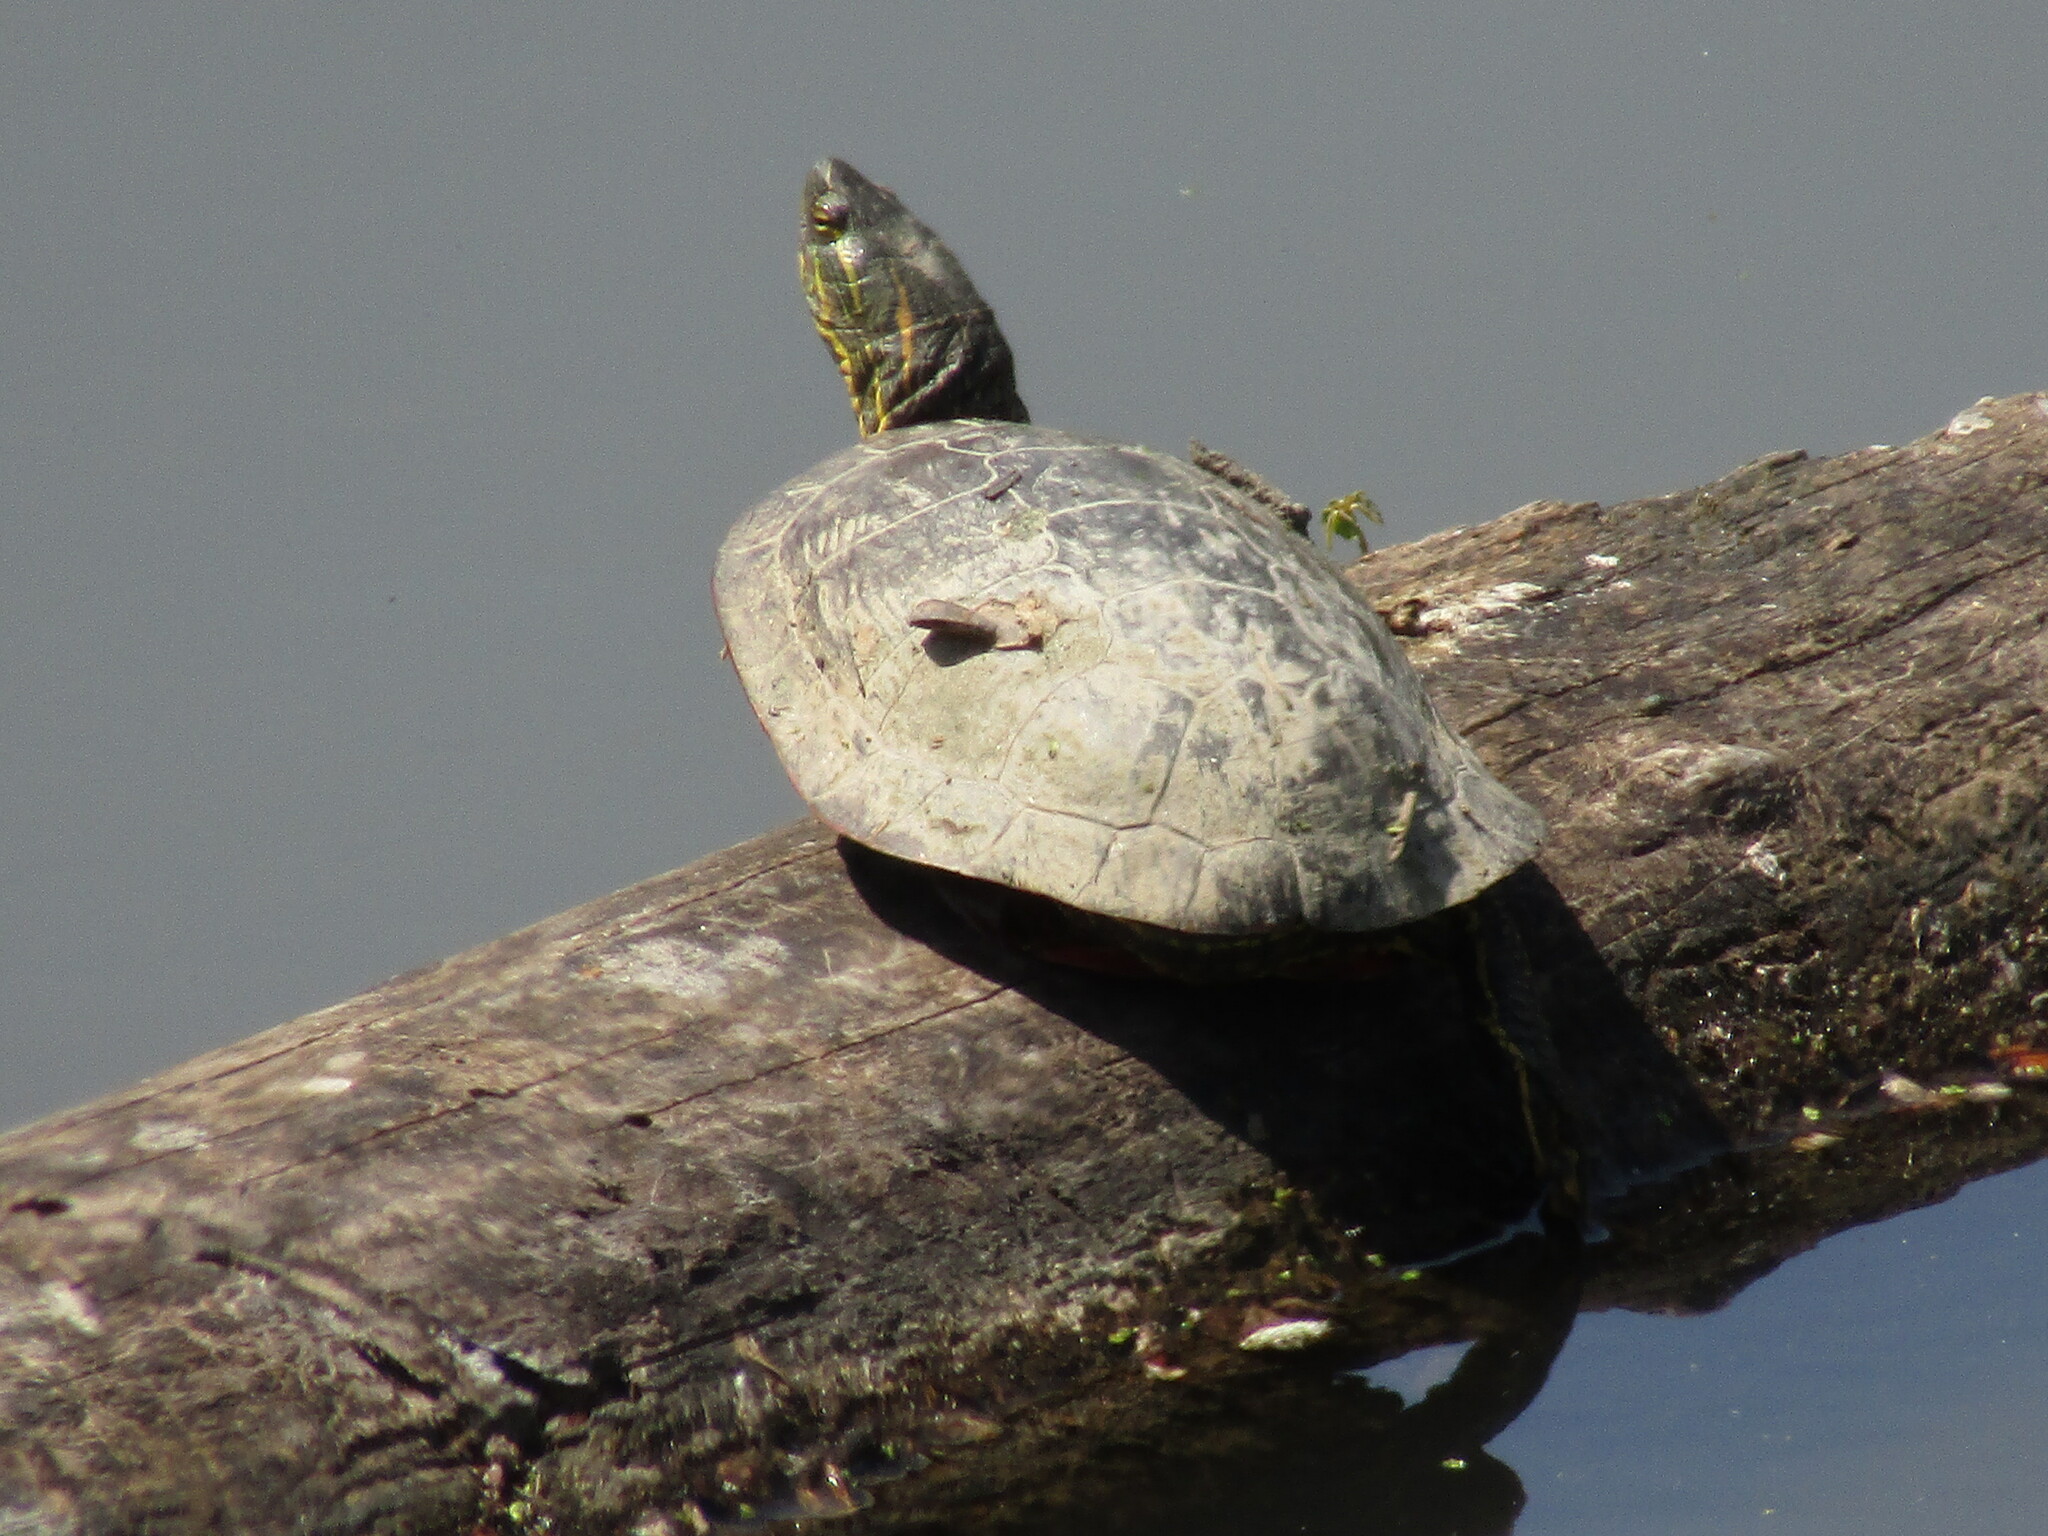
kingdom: Animalia
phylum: Chordata
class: Testudines
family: Emydidae
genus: Chrysemys
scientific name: Chrysemys picta
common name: Painted turtle
